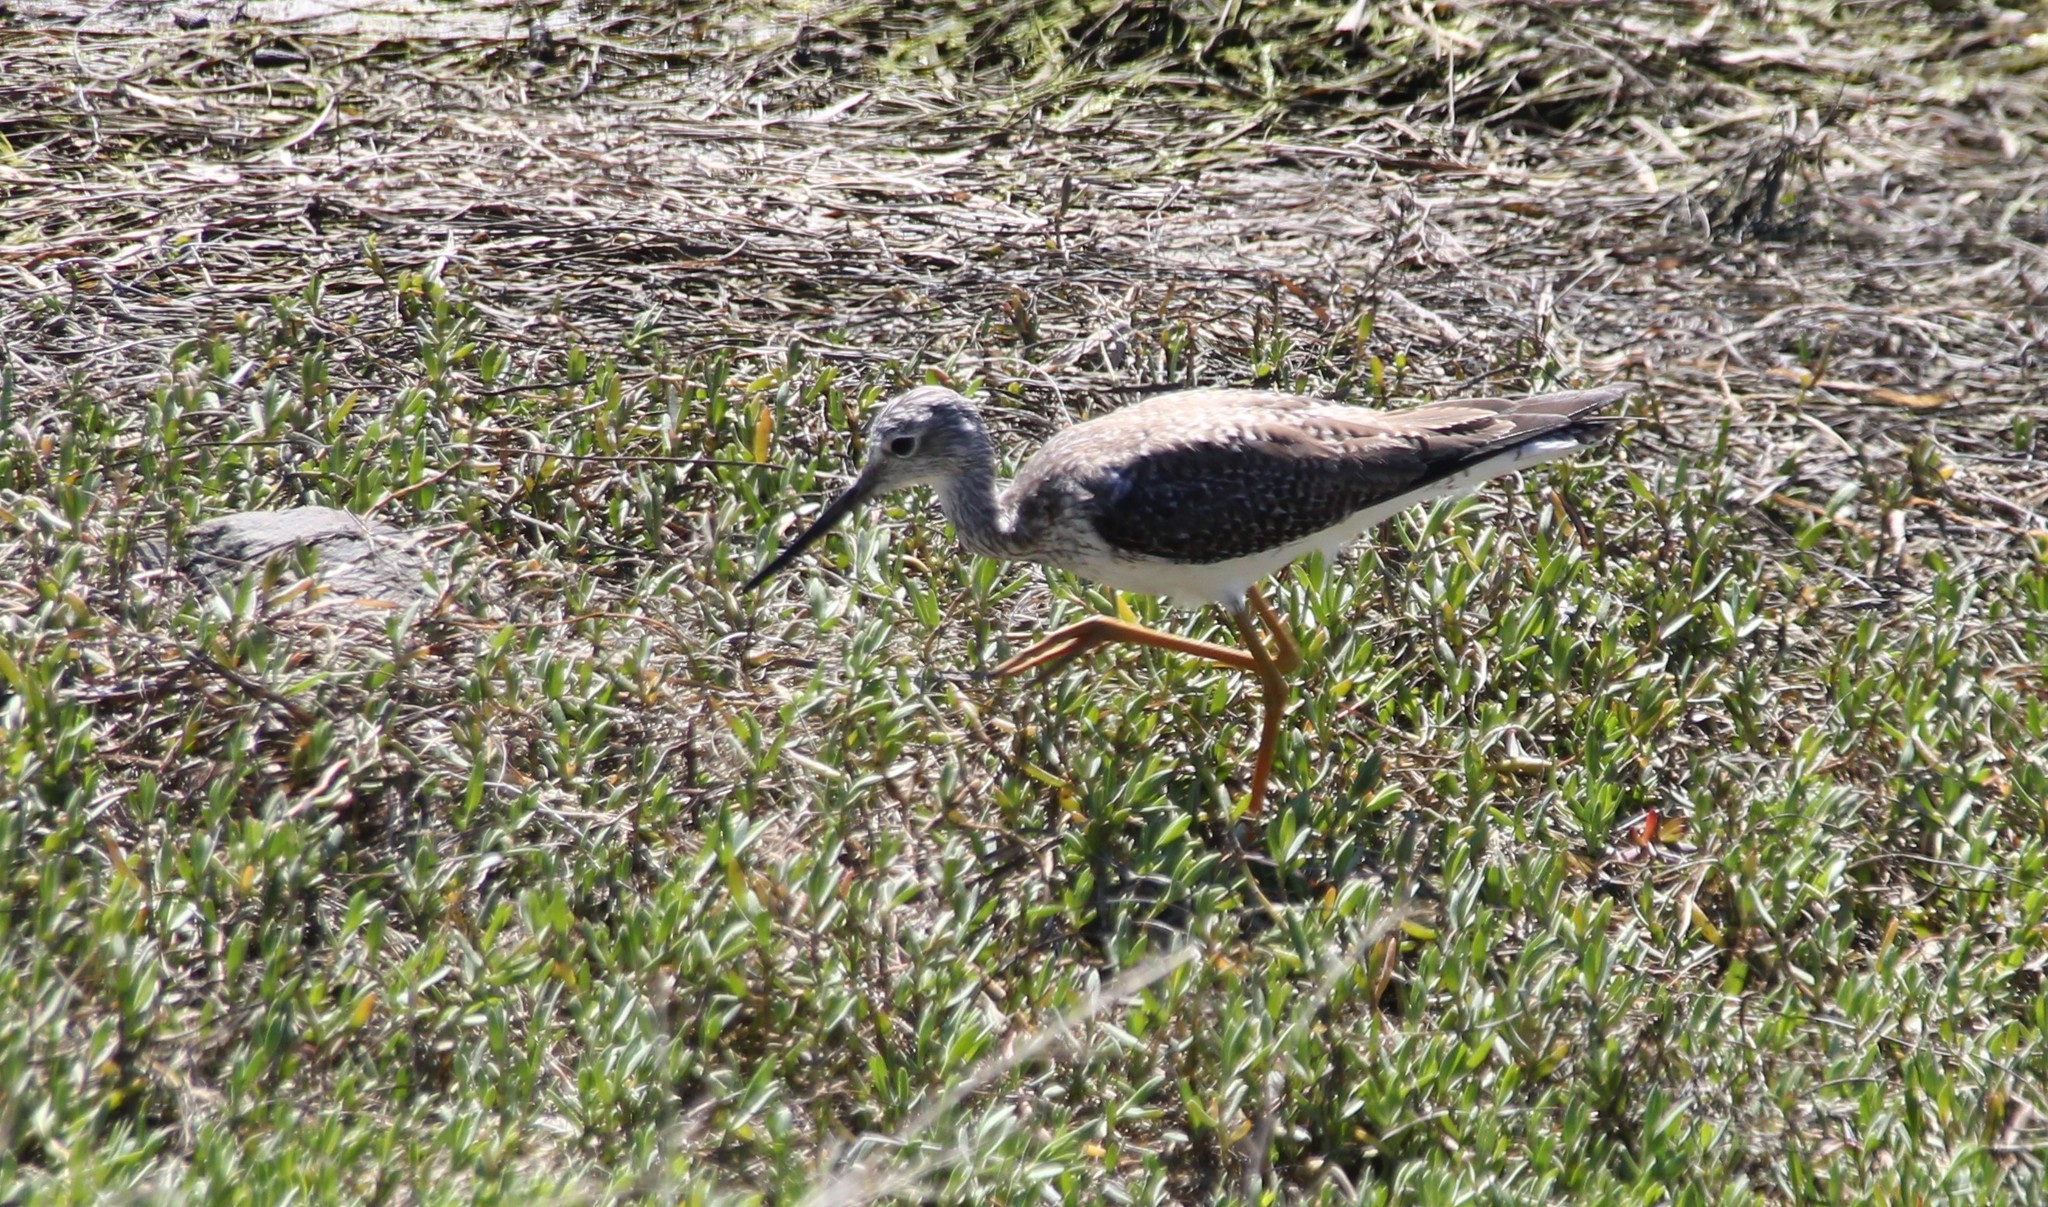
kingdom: Animalia
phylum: Chordata
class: Aves
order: Charadriiformes
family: Scolopacidae
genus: Tringa
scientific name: Tringa melanoleuca
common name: Greater yellowlegs
